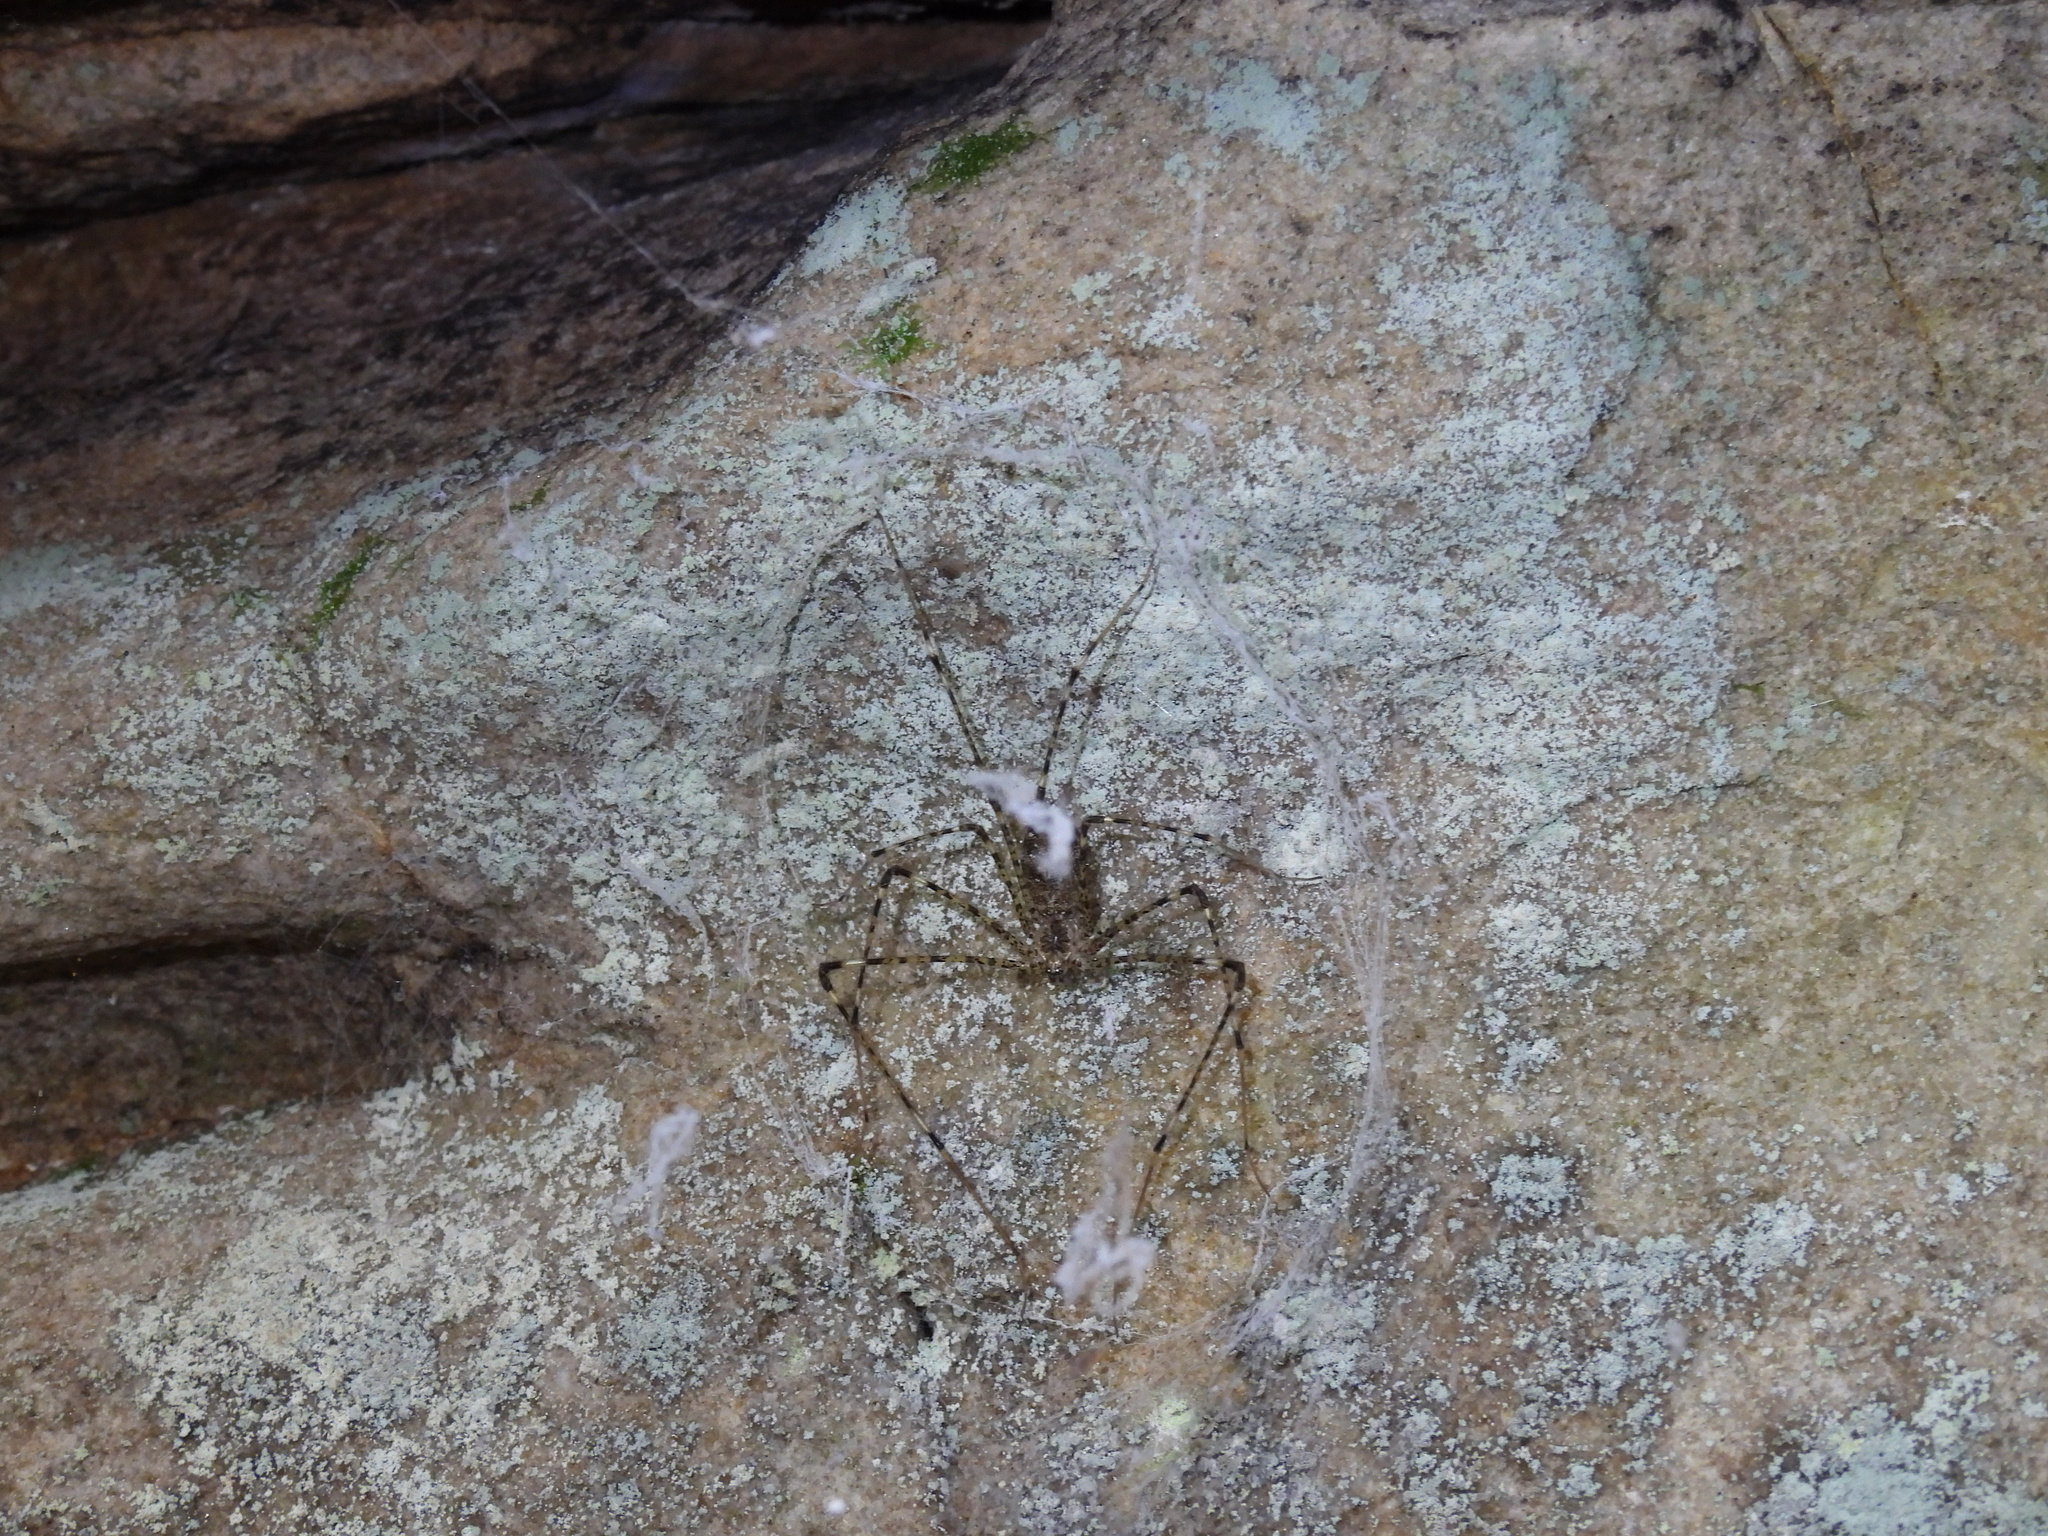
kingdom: Animalia
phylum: Arthropoda
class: Arachnida
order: Araneae
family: Hypochilidae
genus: Hypochilus
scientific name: Hypochilus thorelli
